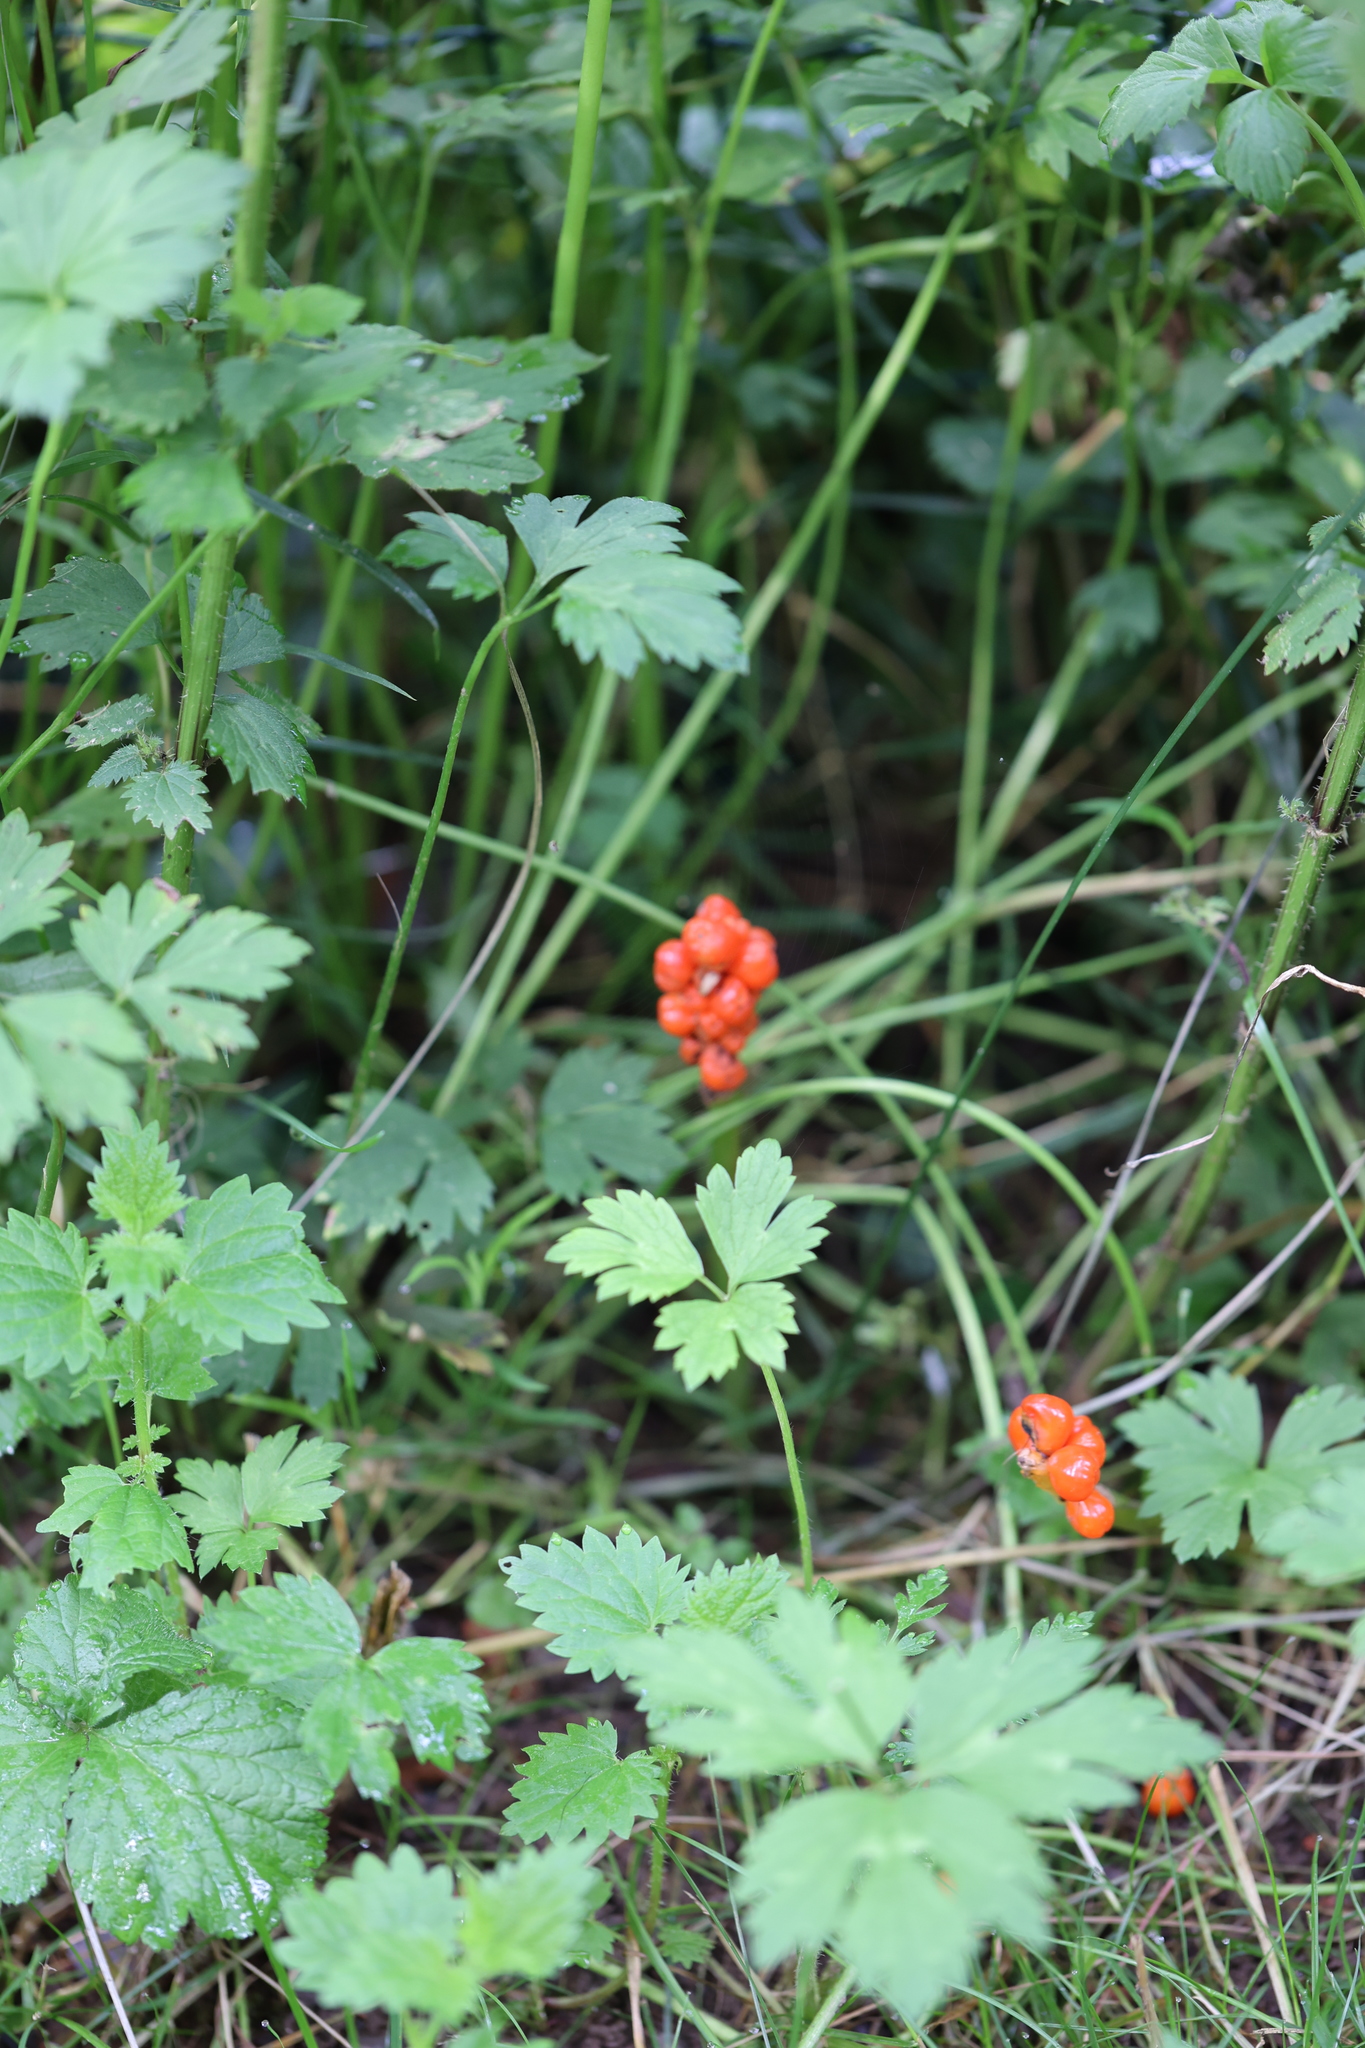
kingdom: Plantae
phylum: Tracheophyta
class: Liliopsida
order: Alismatales
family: Araceae
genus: Arum
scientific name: Arum maculatum
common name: Lords-and-ladies
